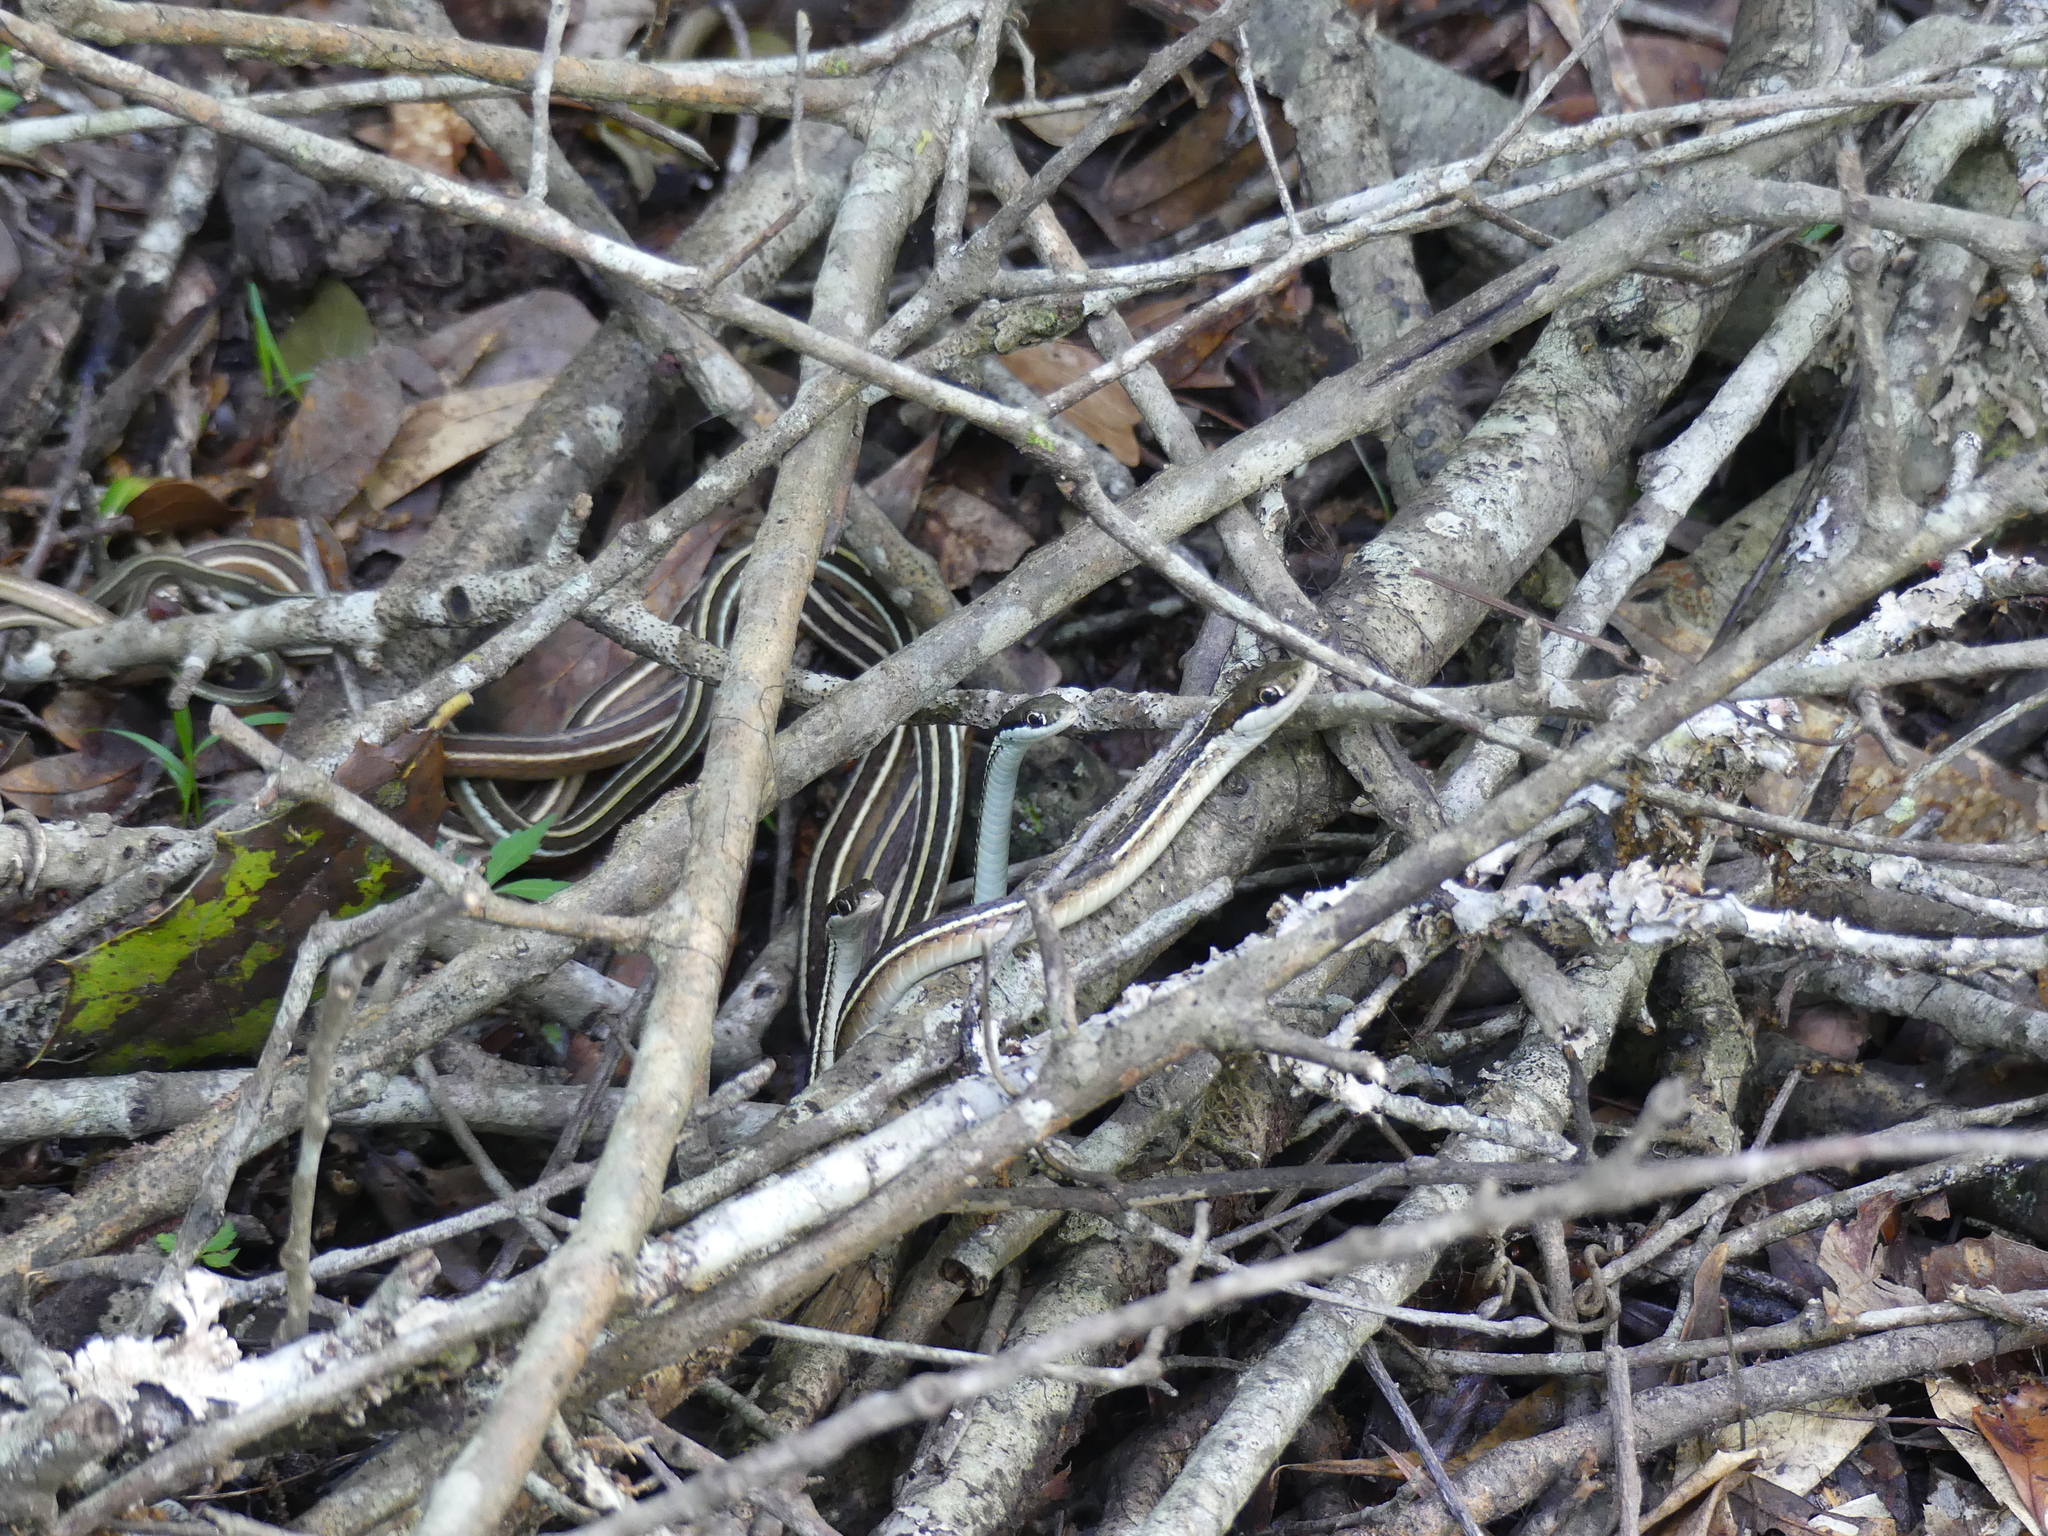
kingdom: Animalia
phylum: Chordata
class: Squamata
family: Colubridae
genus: Thamnophis
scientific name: Thamnophis saurita
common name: Eastern ribbonsnake
